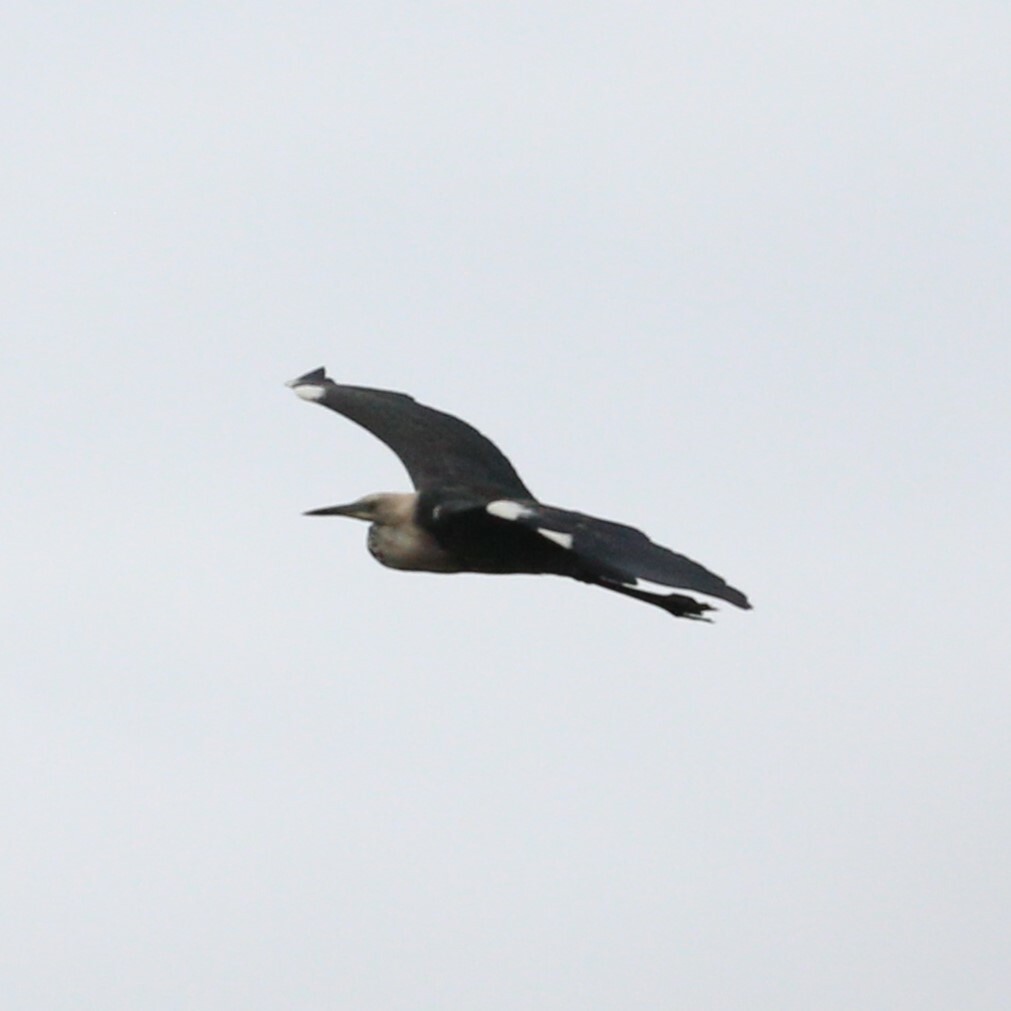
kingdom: Animalia
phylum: Chordata
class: Aves
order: Pelecaniformes
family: Ardeidae
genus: Ardea
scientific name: Ardea pacifica
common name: White-necked heron
